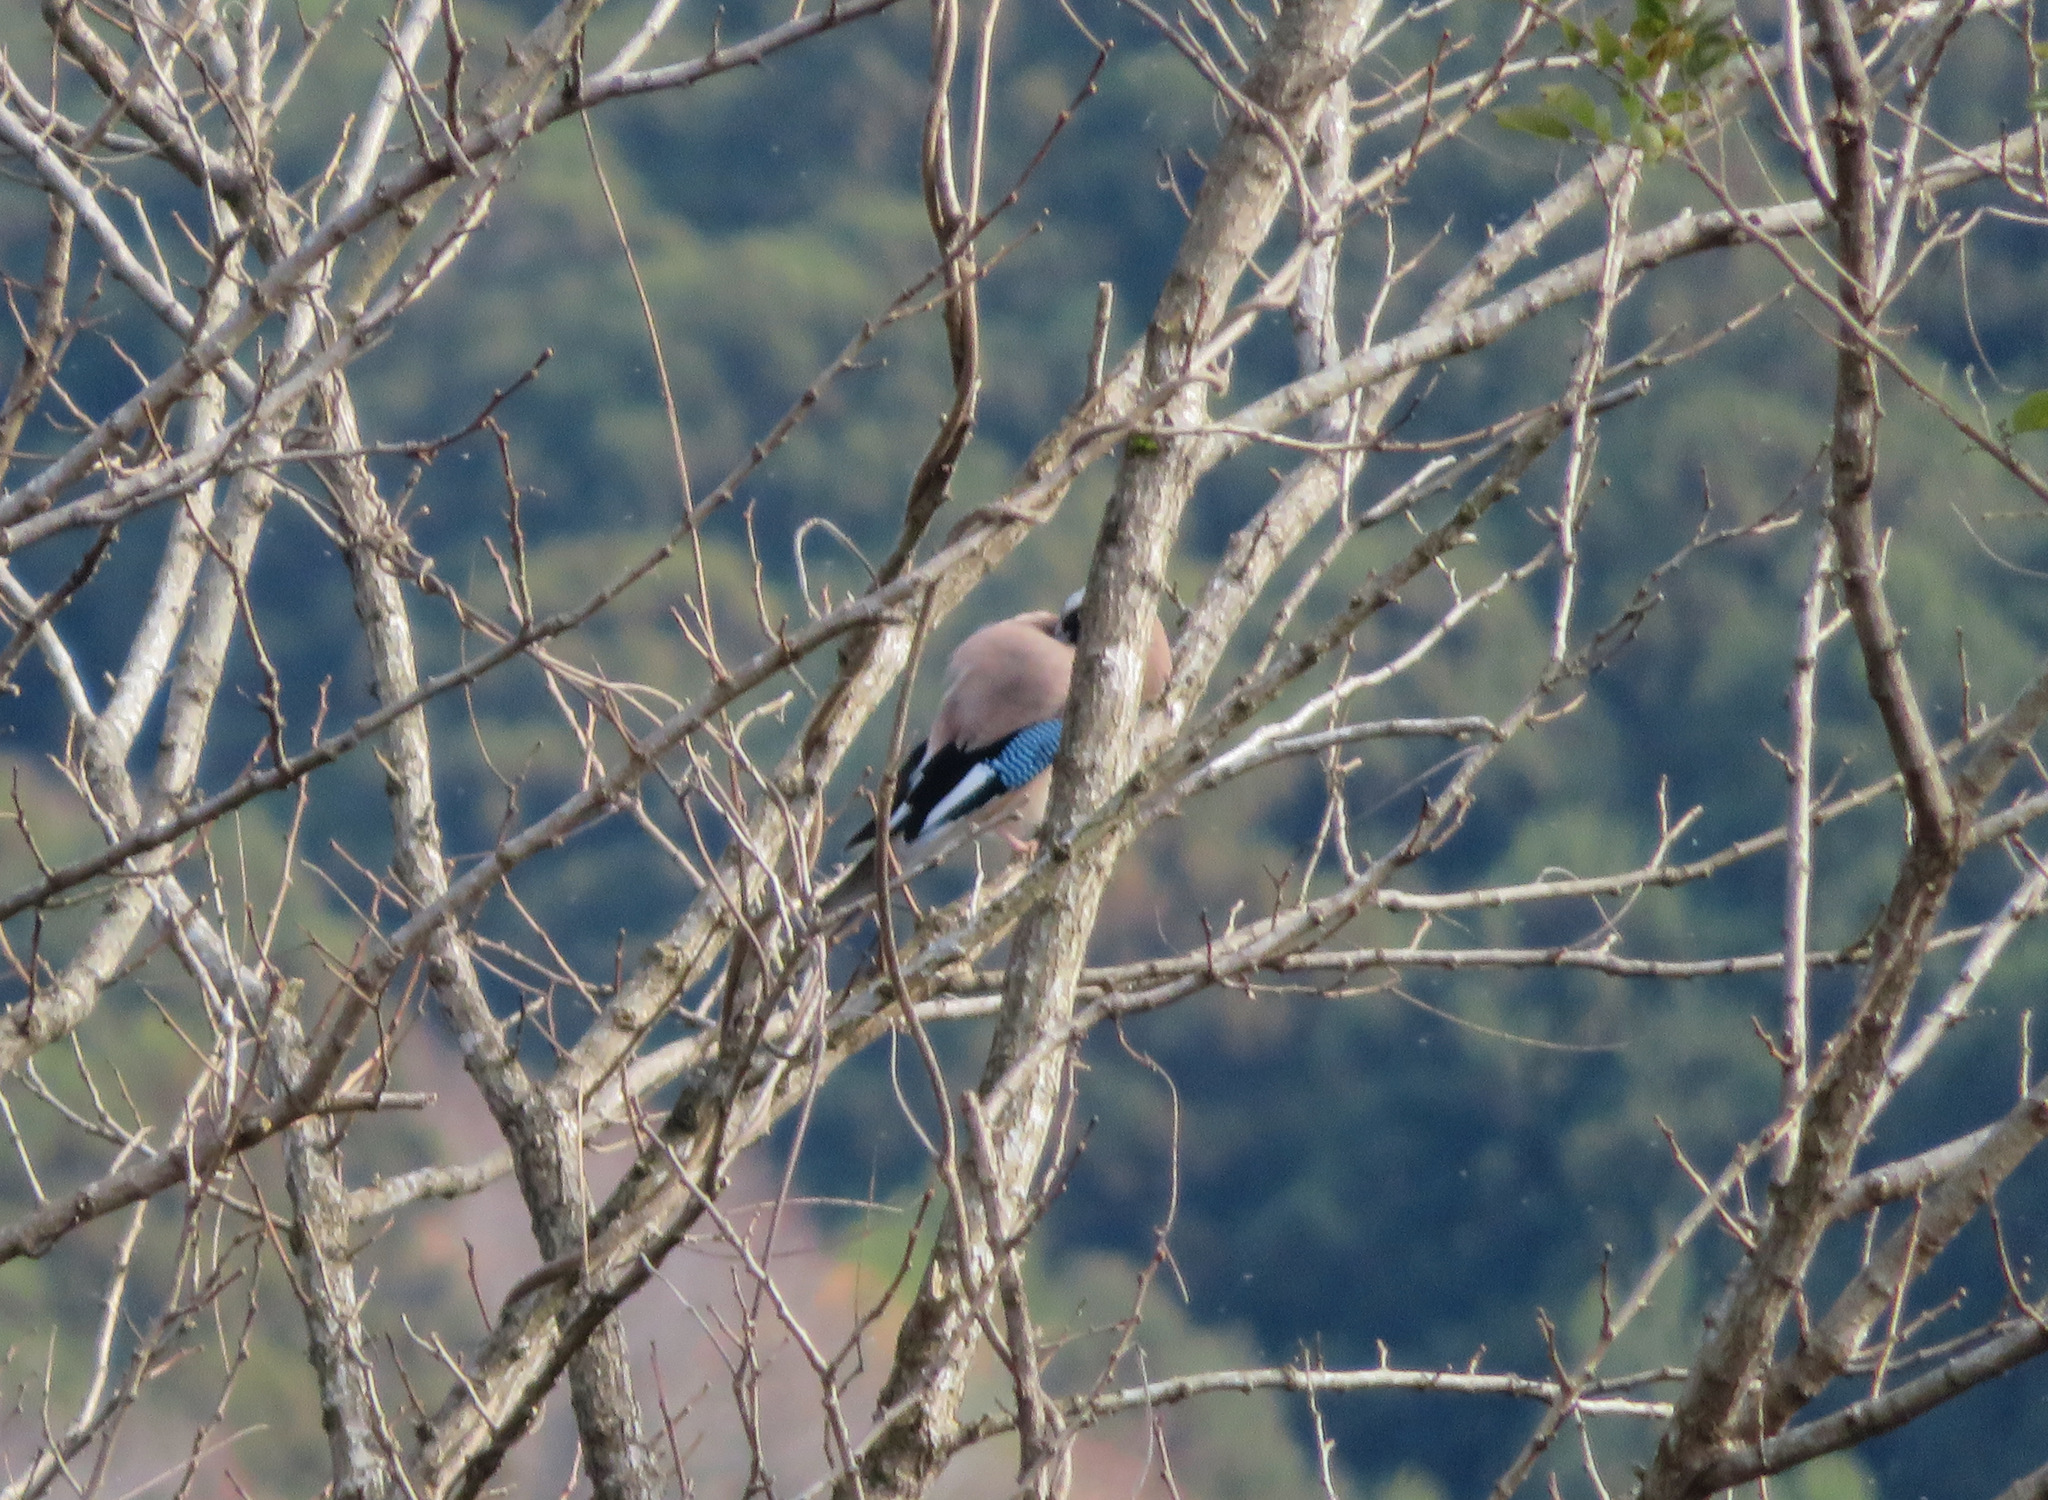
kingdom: Animalia
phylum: Chordata
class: Aves
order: Passeriformes
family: Corvidae
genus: Garrulus
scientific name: Garrulus glandarius
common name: Eurasian jay
